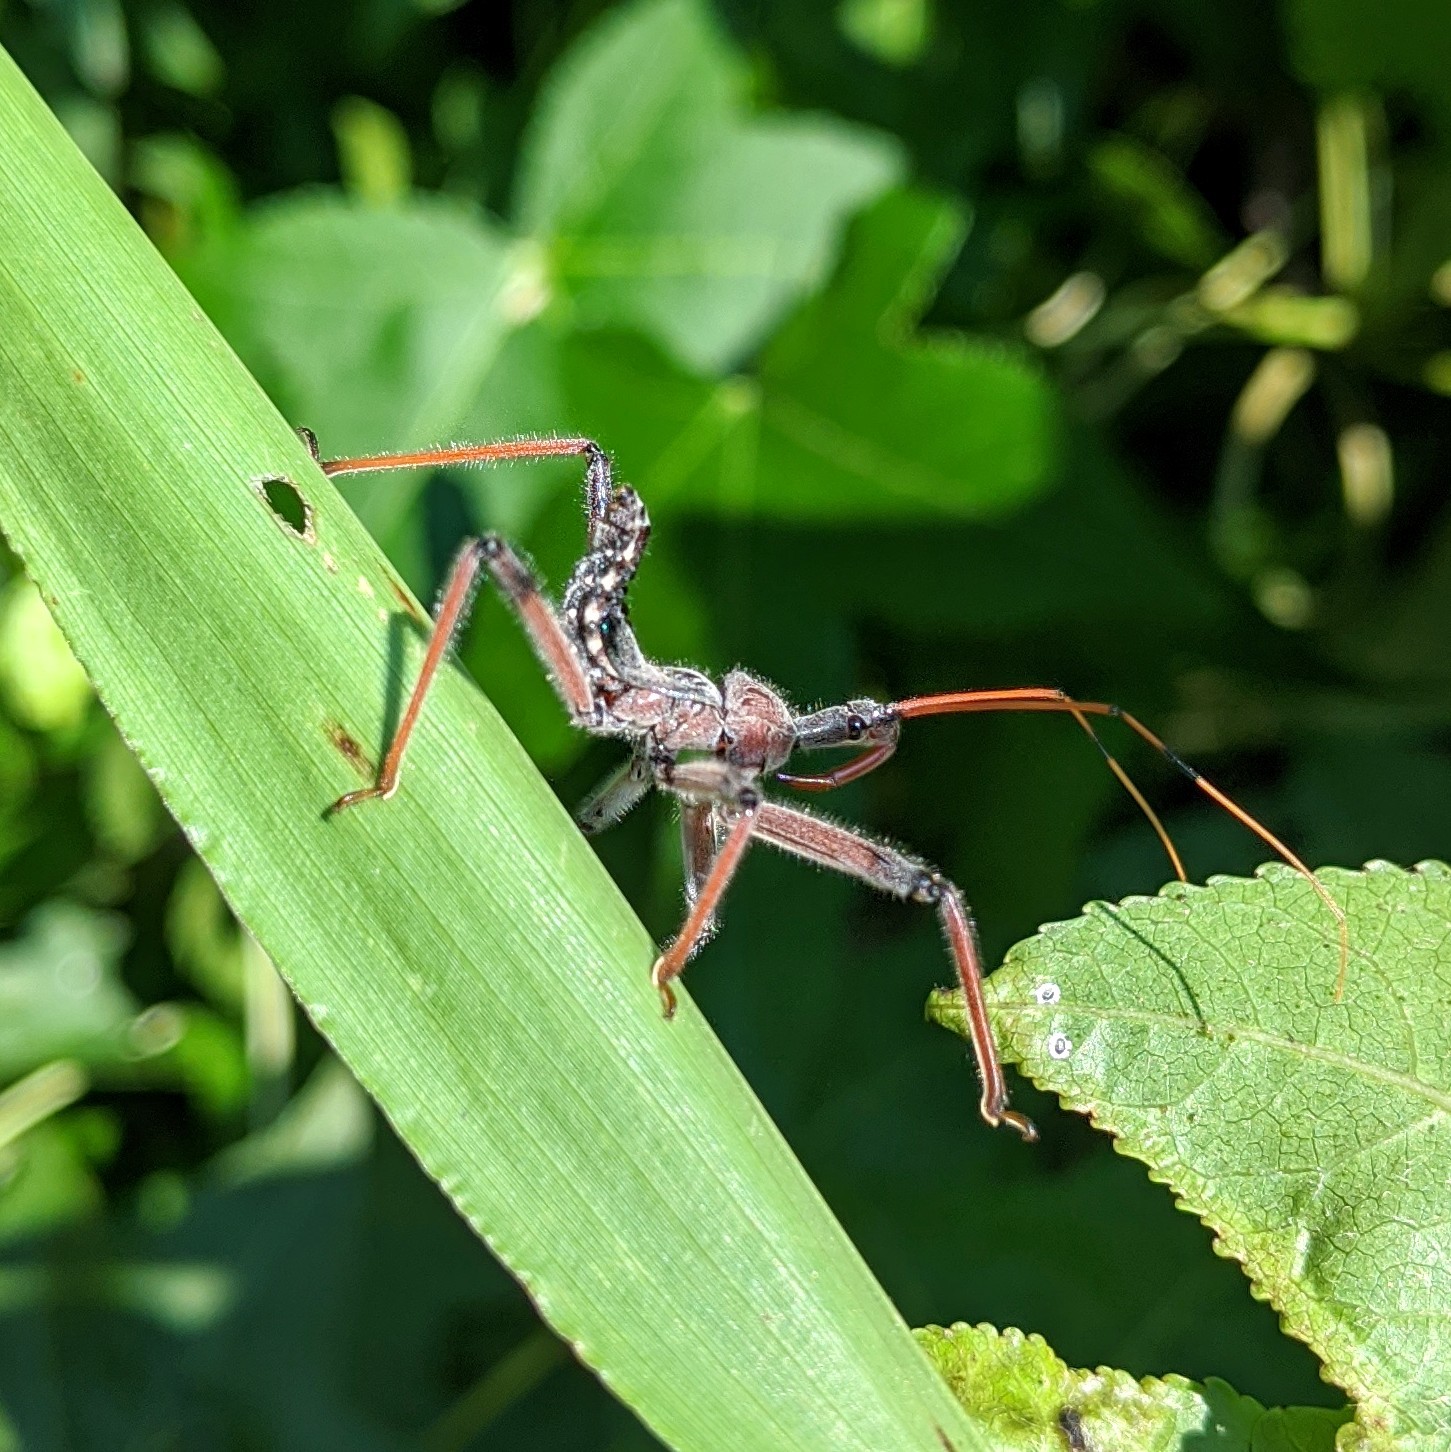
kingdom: Animalia
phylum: Arthropoda
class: Insecta
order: Hemiptera
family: Reduviidae
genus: Arilus
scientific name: Arilus cristatus
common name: North american wheel bug
